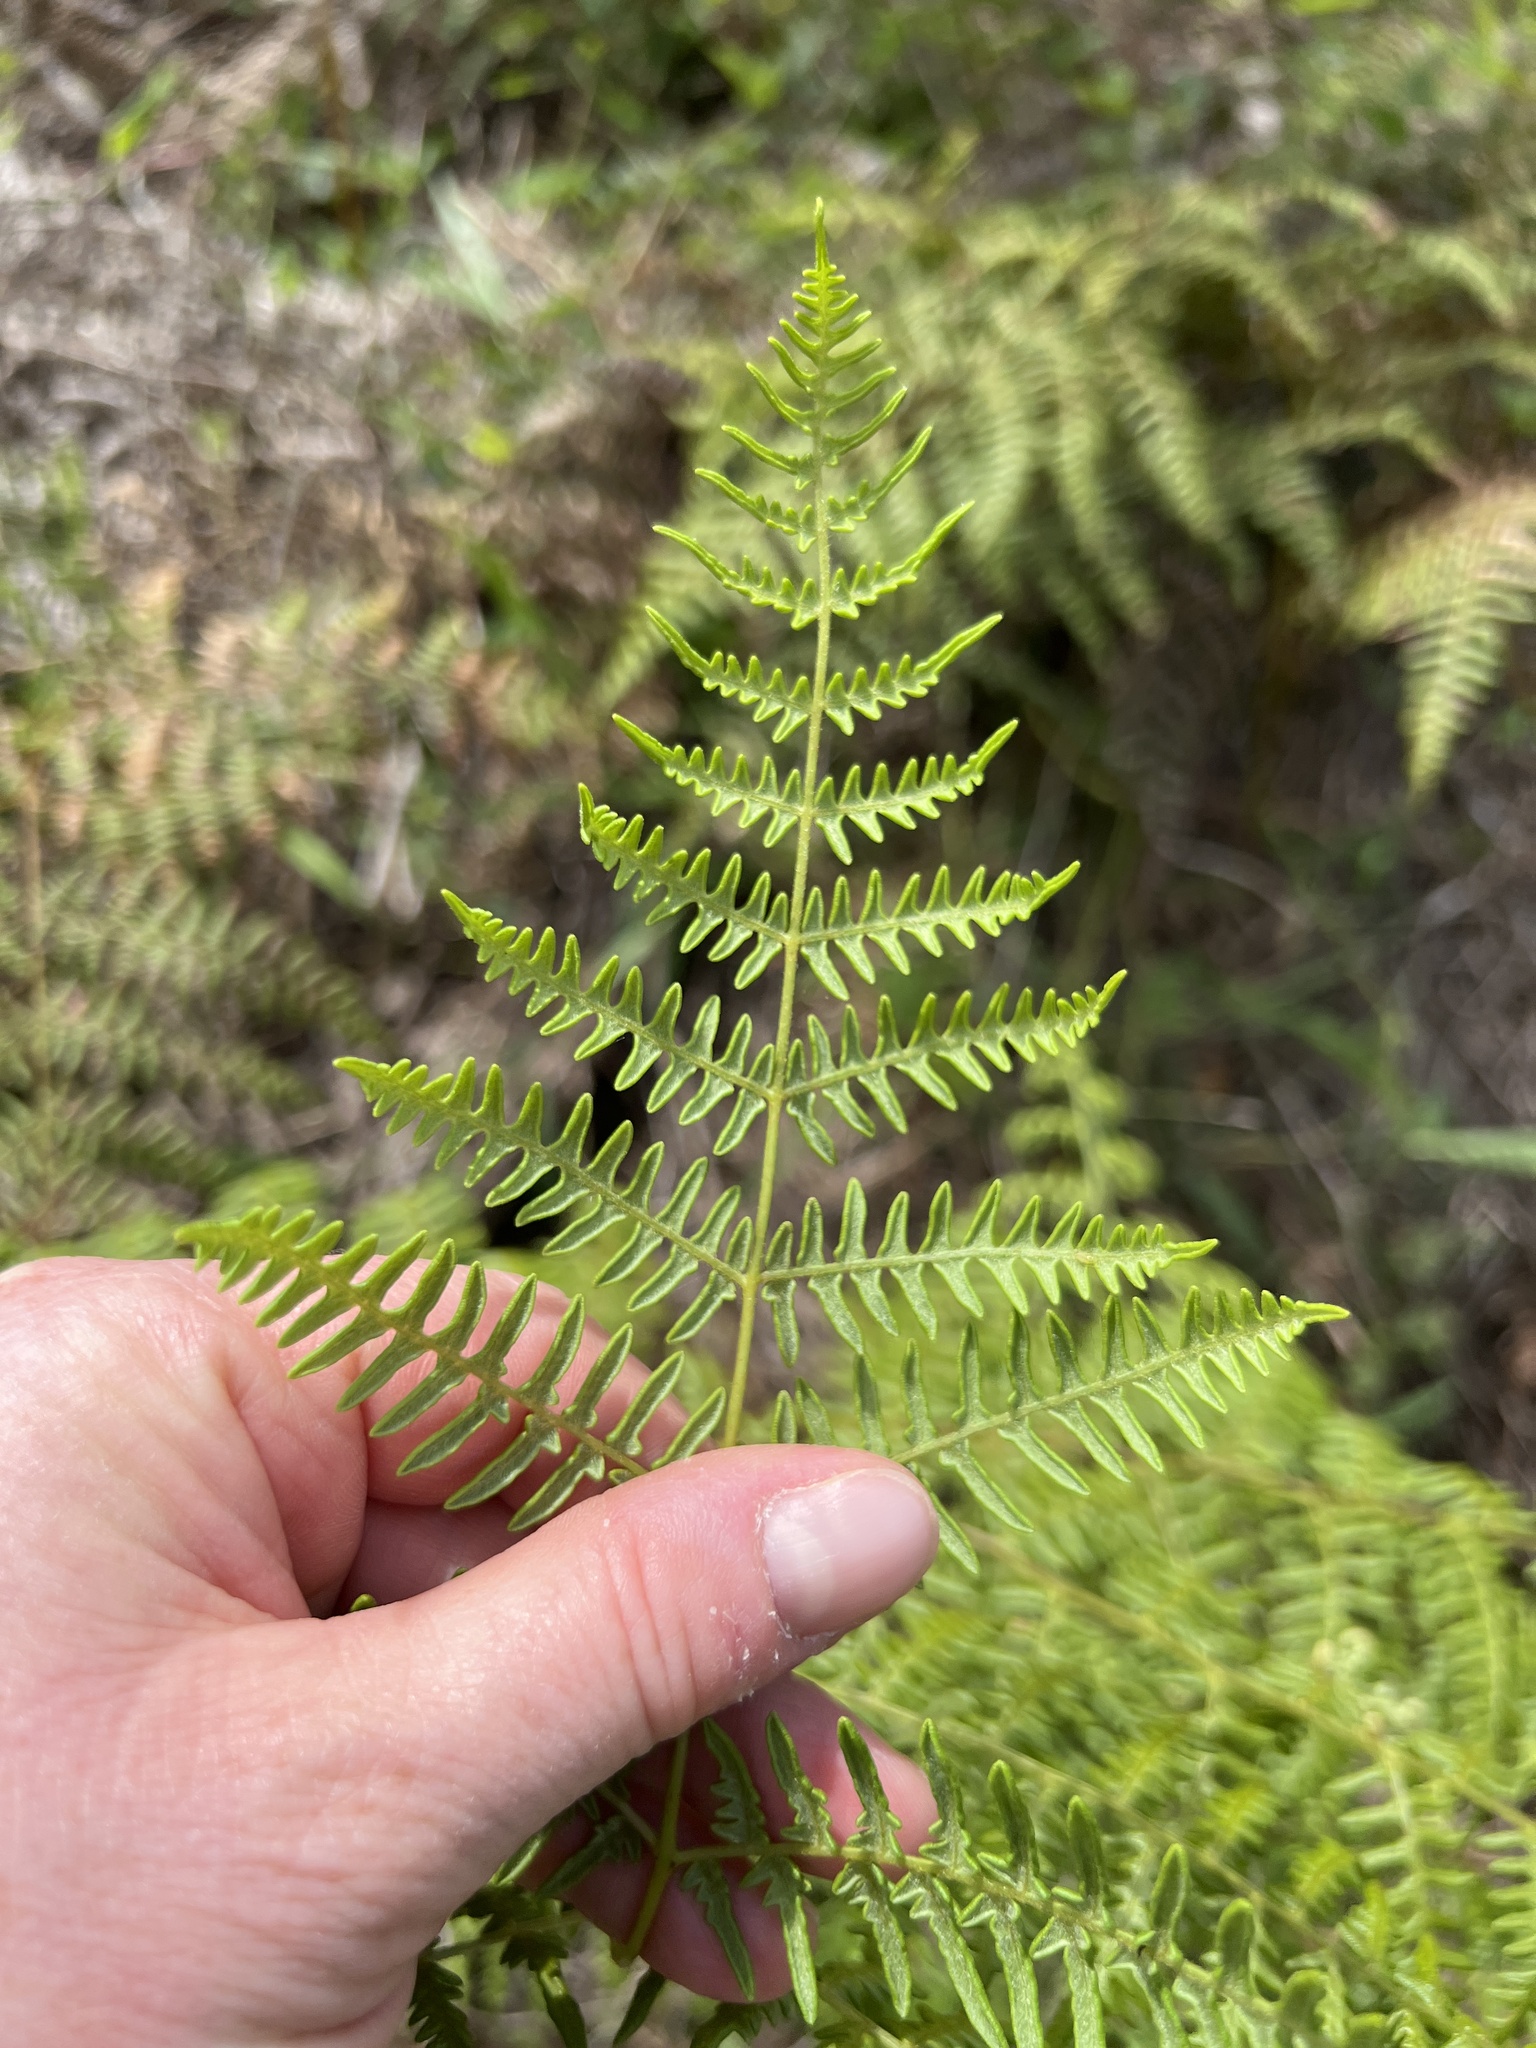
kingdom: Plantae
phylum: Tracheophyta
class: Polypodiopsida
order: Polypodiales
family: Dennstaedtiaceae
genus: Pteridium
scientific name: Pteridium aquilinum
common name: Bracken
